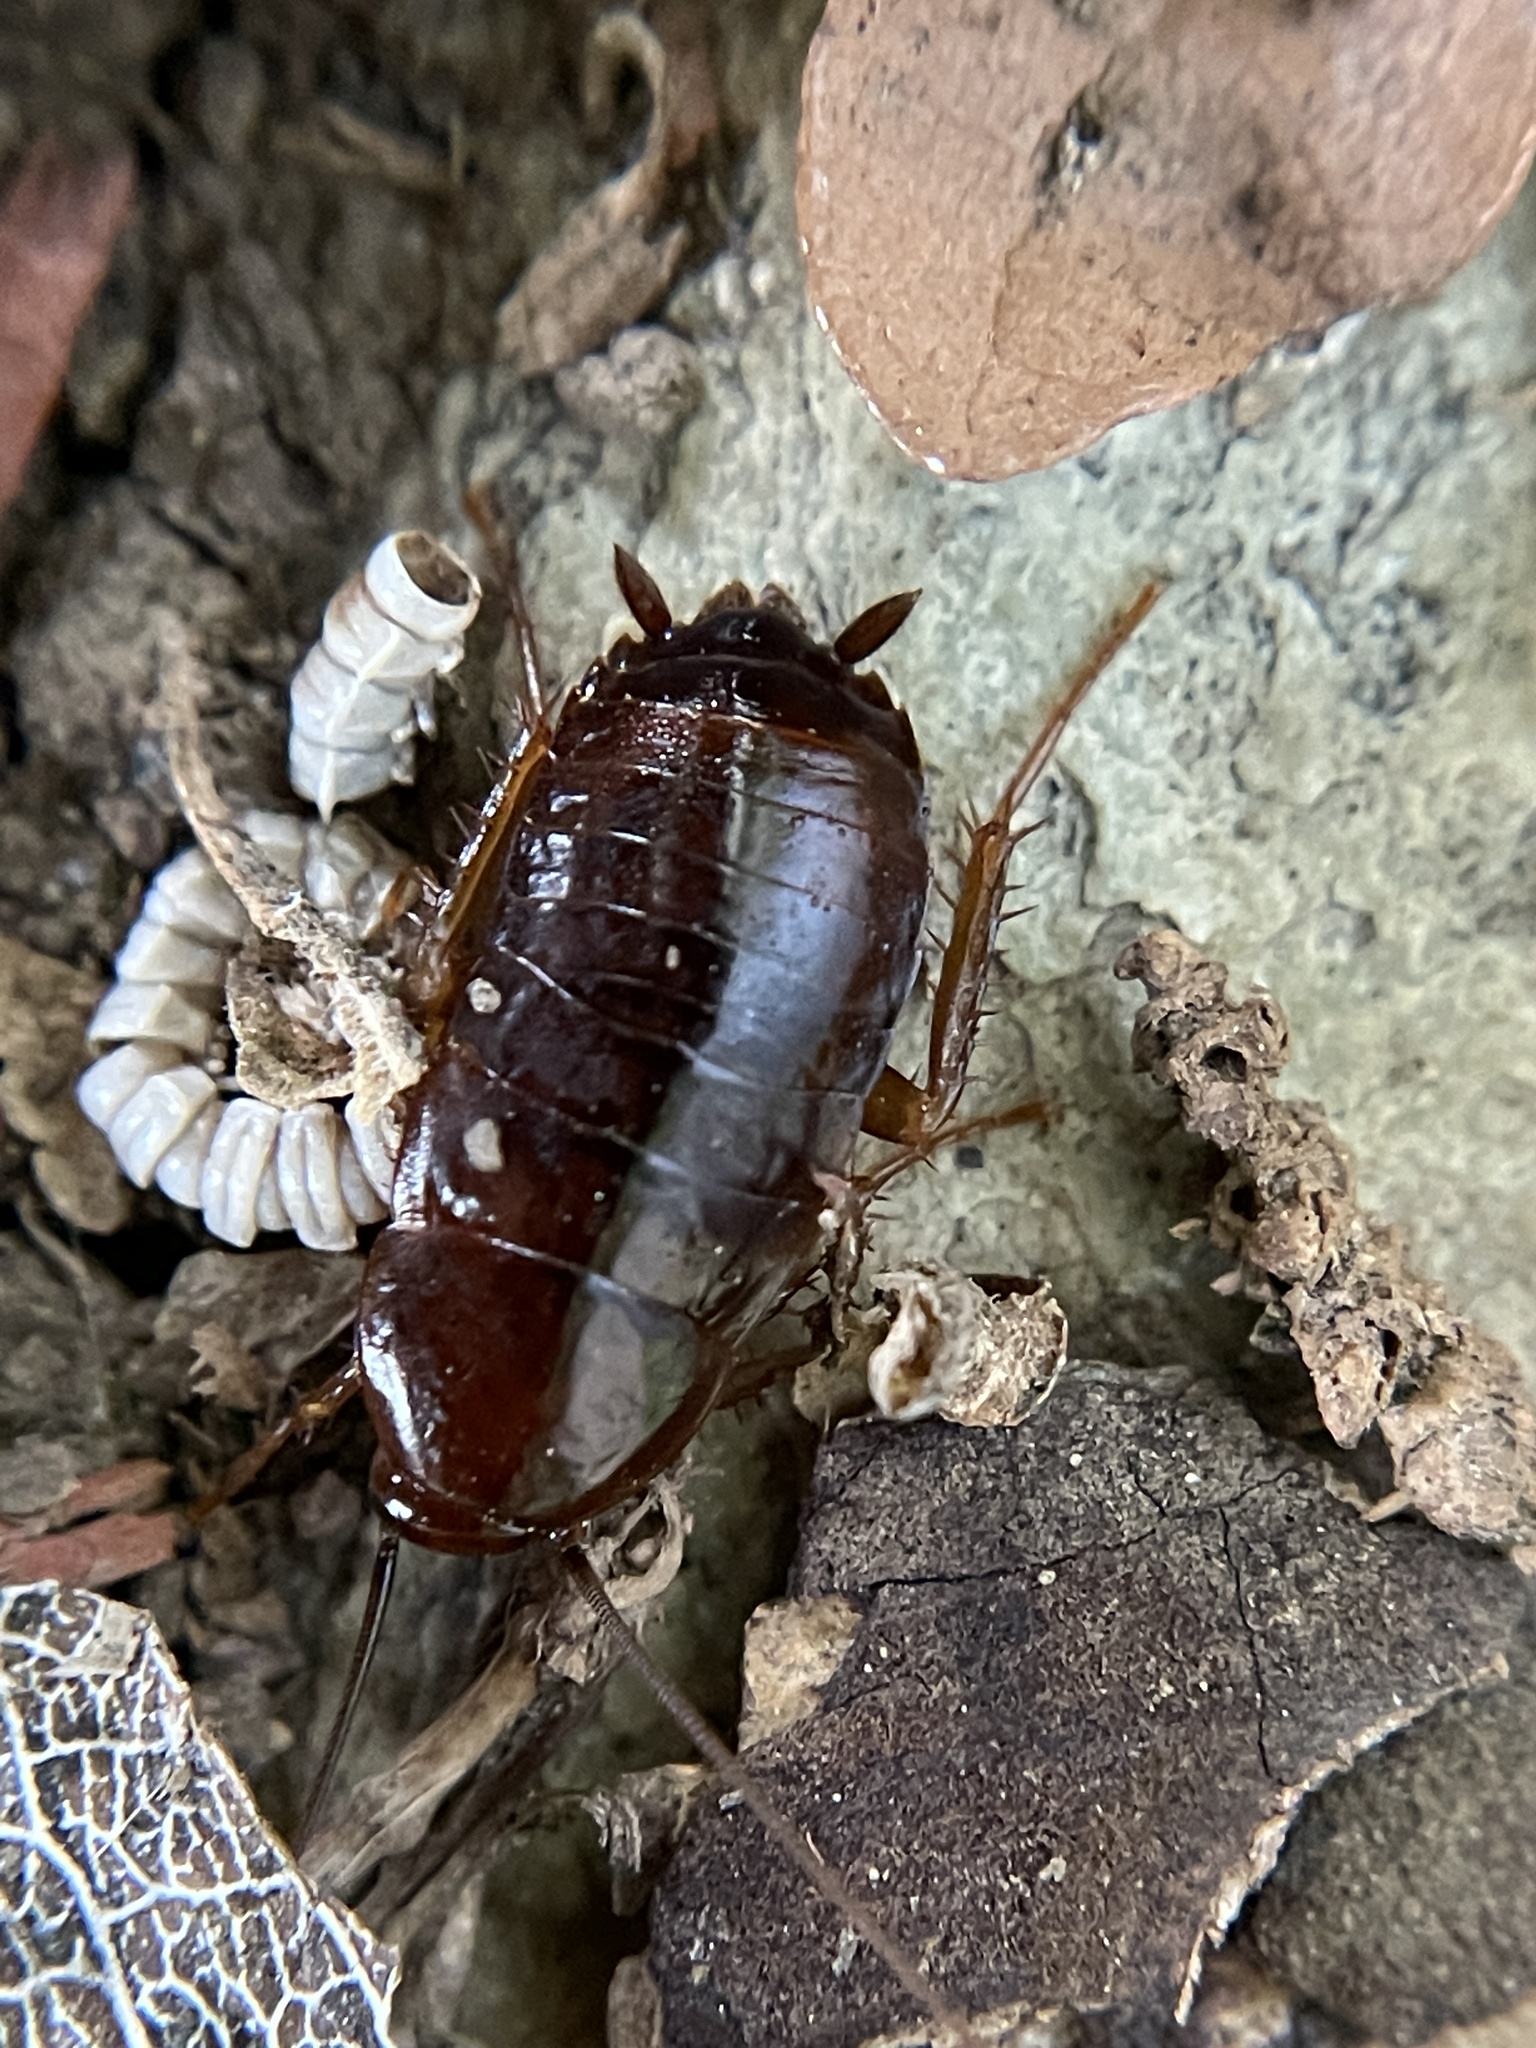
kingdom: Animalia
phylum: Arthropoda
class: Insecta
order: Blattodea
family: Blattidae
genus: Blatta
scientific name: Blatta orientalis
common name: Oriental cockroach
